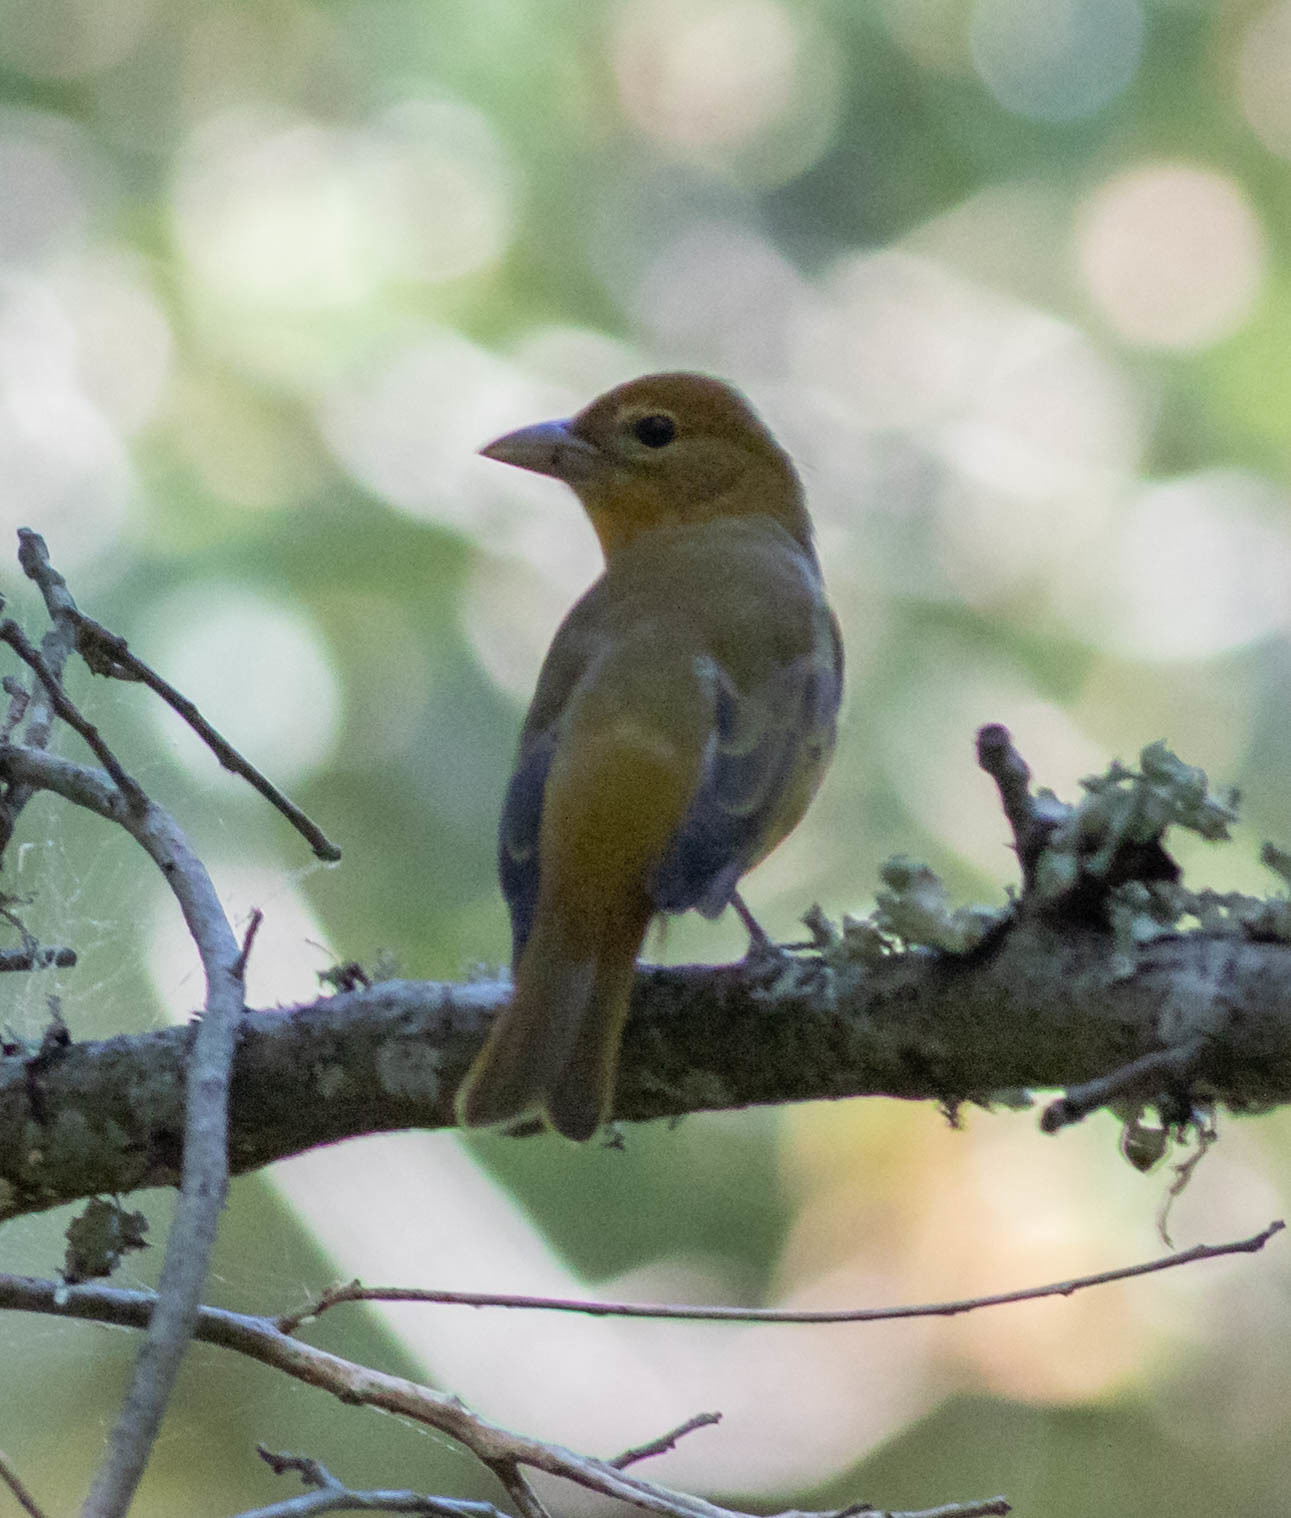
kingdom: Animalia
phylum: Chordata
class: Aves
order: Passeriformes
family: Cardinalidae
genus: Piranga
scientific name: Piranga rubra
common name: Summer tanager
